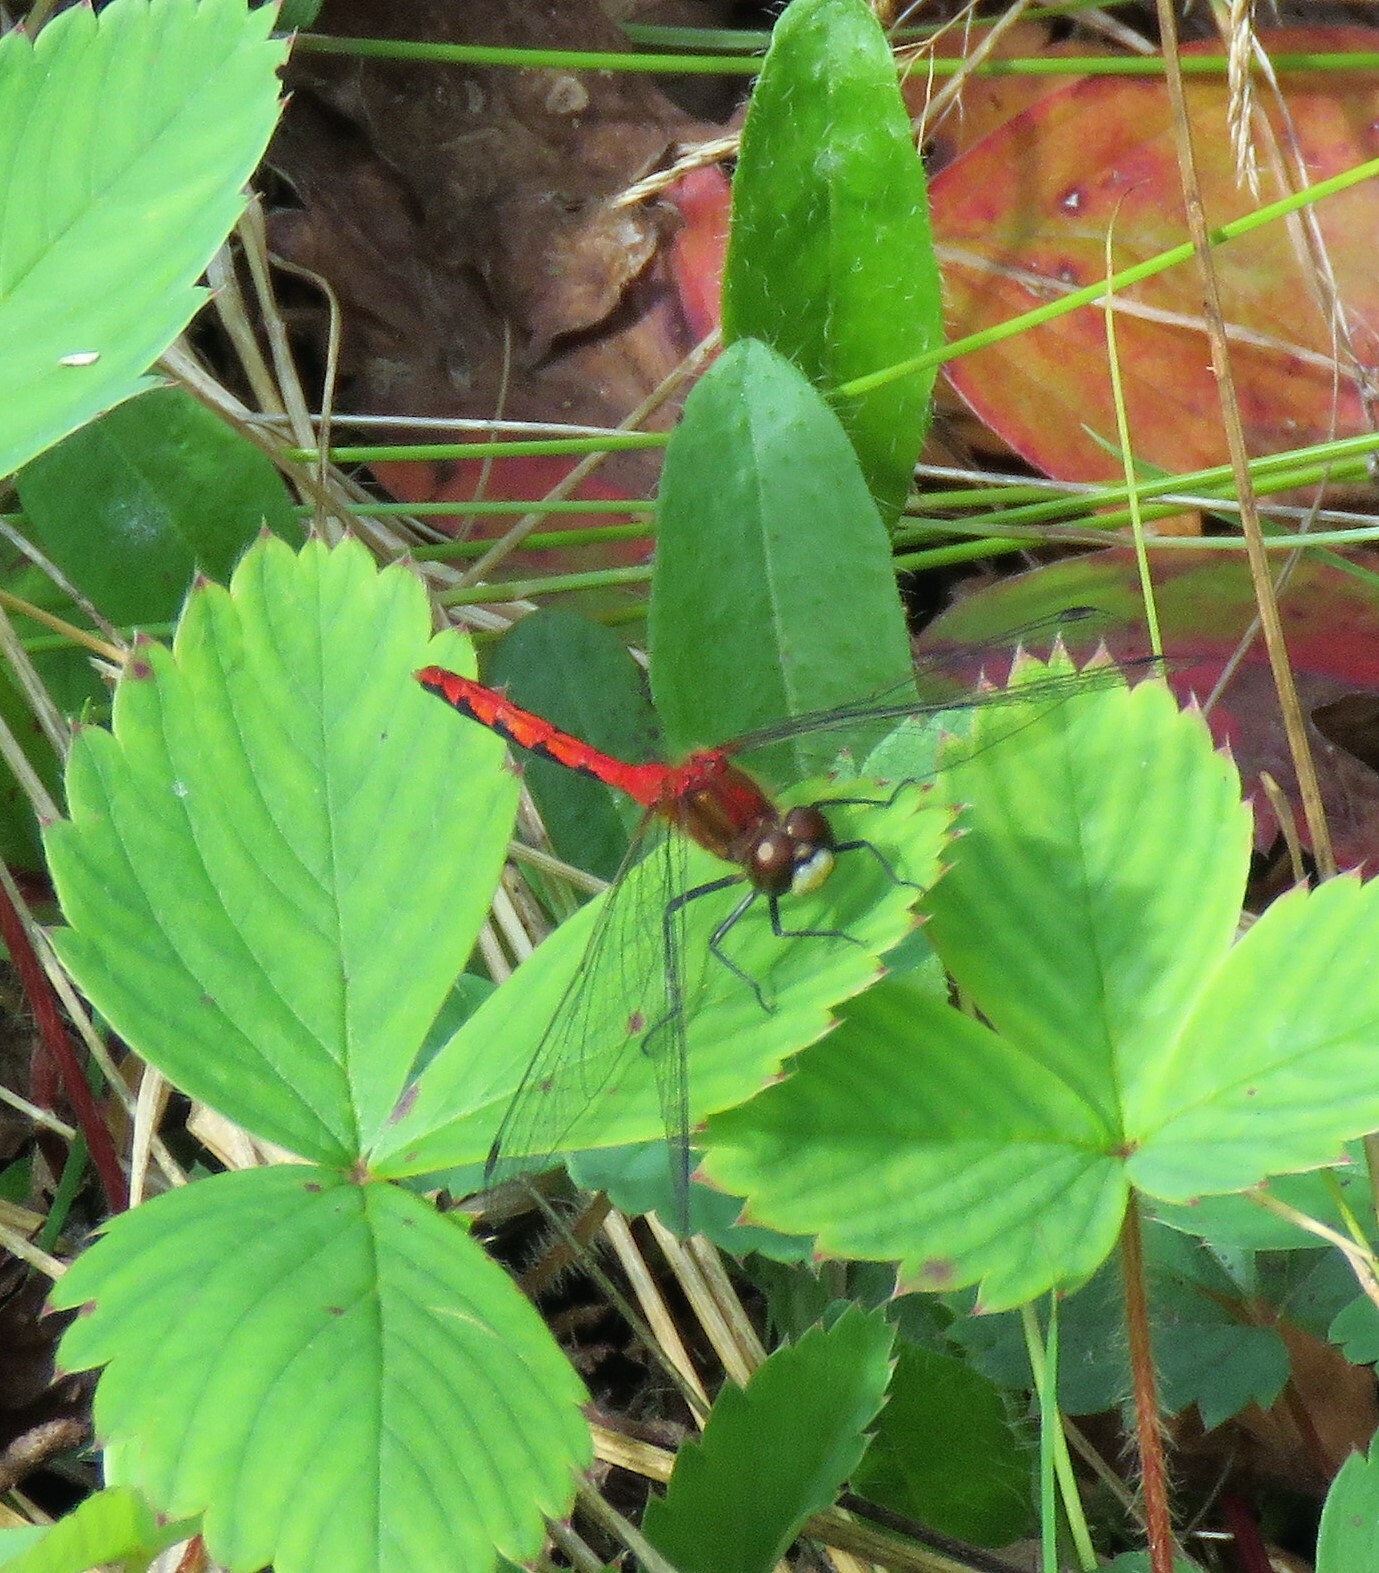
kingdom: Animalia
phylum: Arthropoda
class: Insecta
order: Odonata
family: Libellulidae
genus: Sympetrum
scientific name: Sympetrum obtrusum
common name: White-faced meadowhawk
